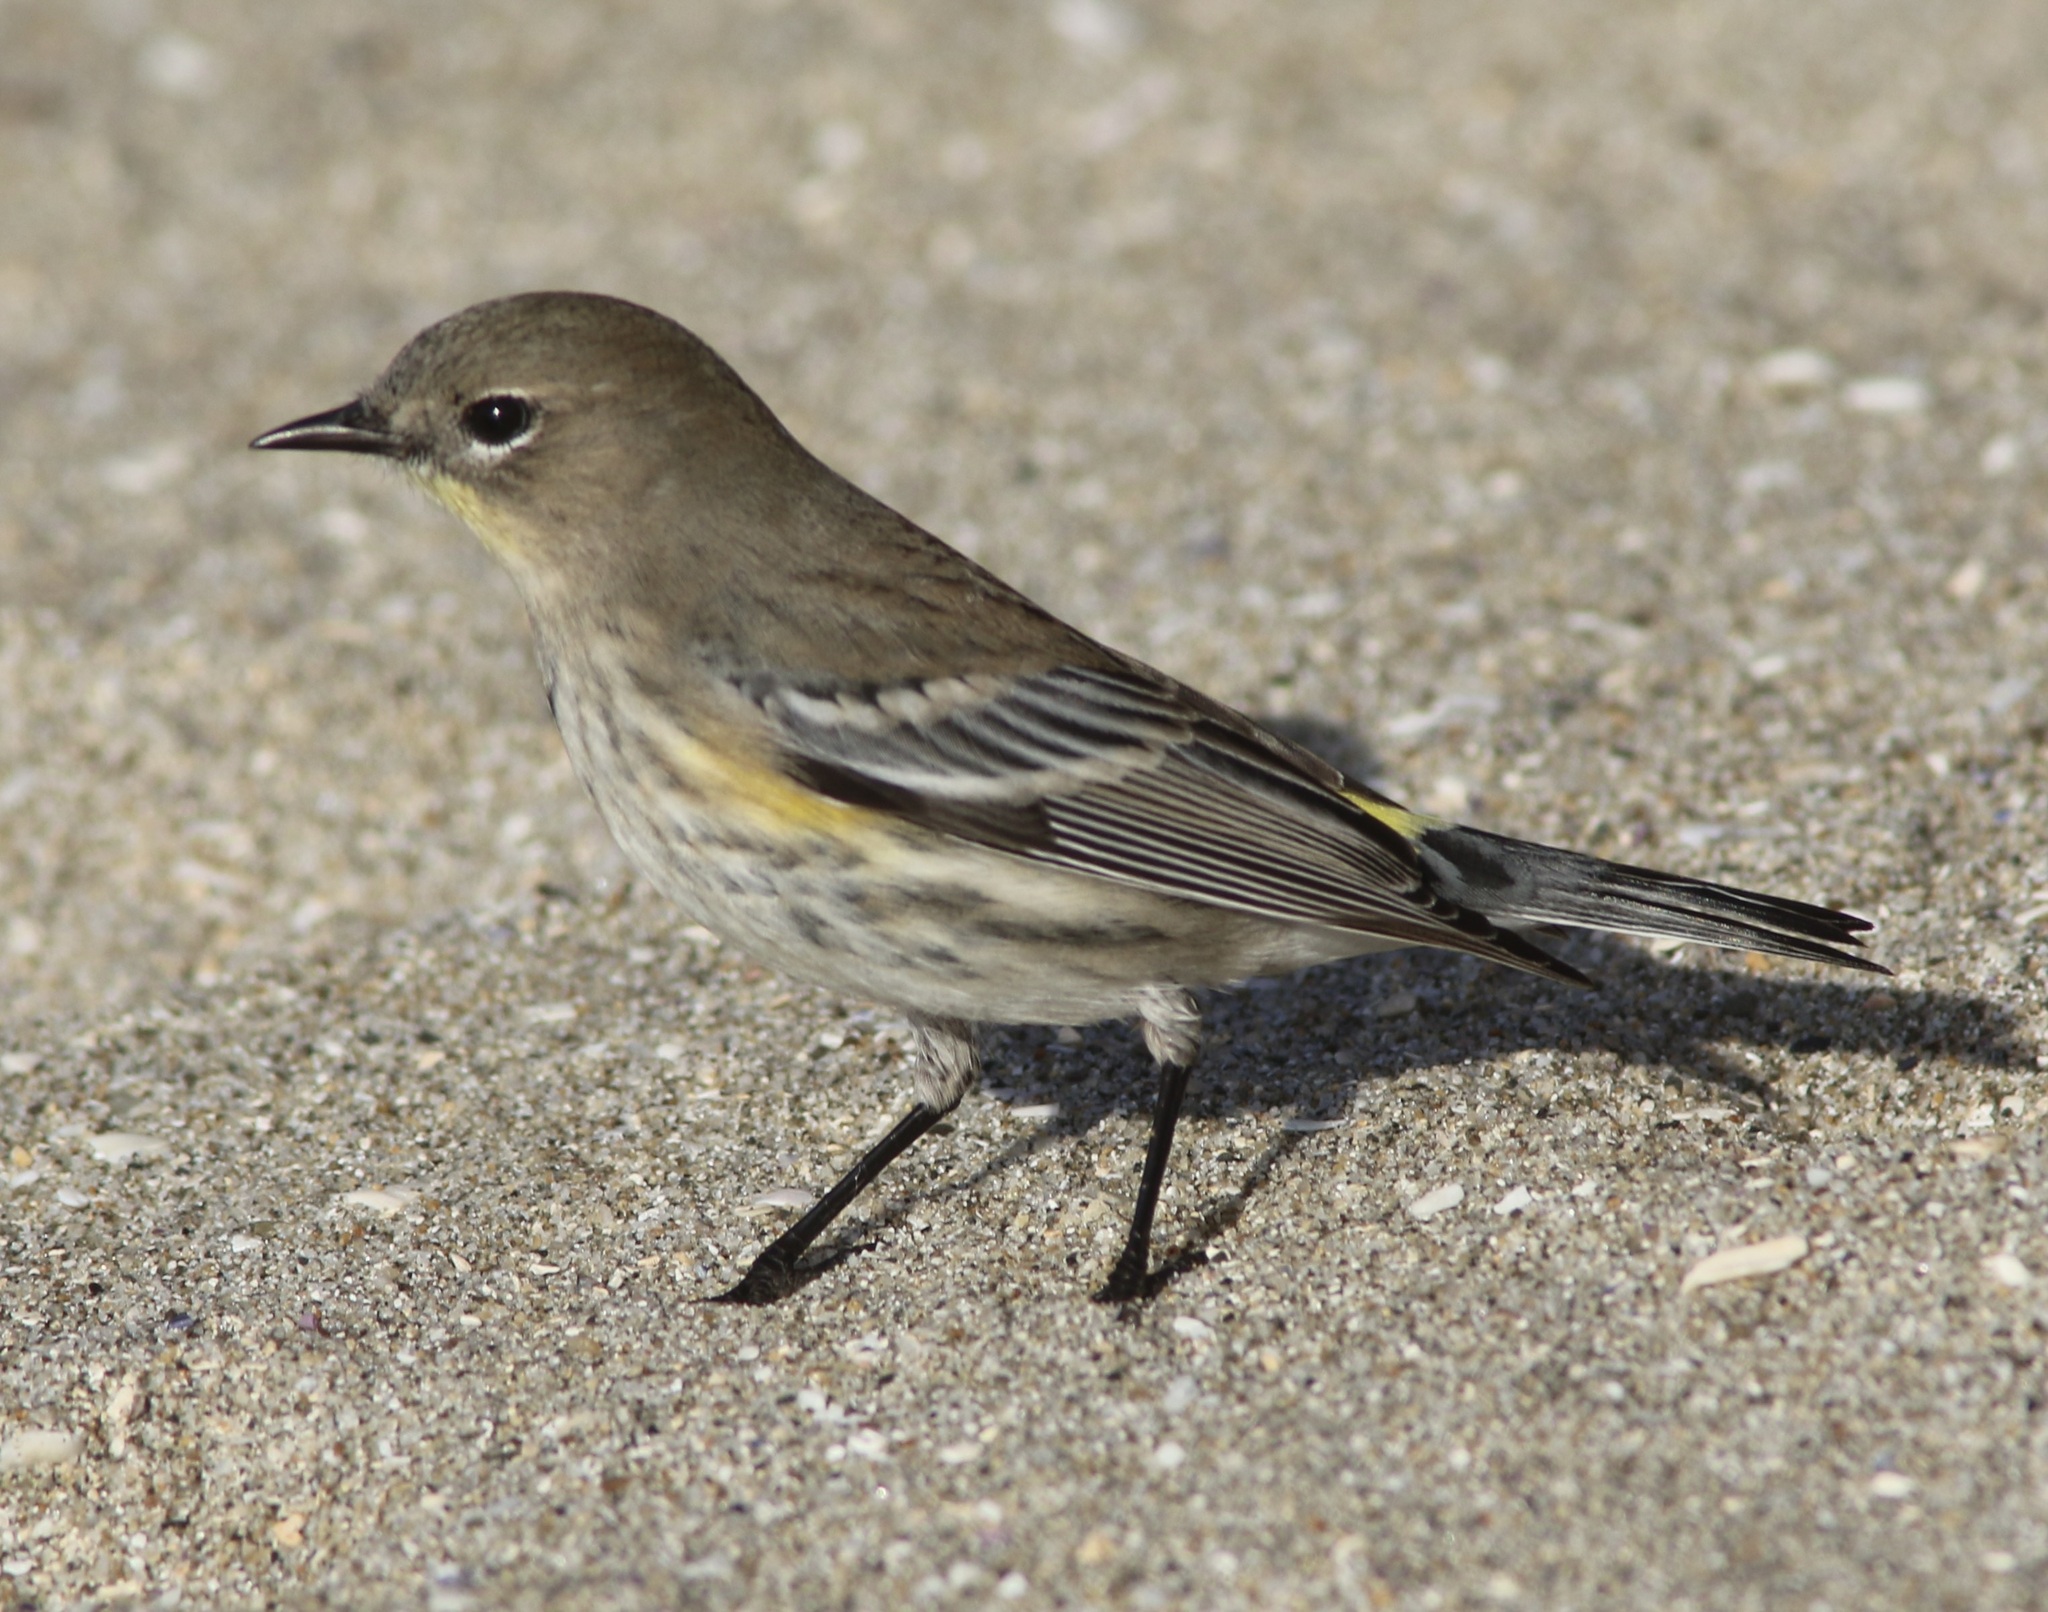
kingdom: Animalia
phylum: Chordata
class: Aves
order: Passeriformes
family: Parulidae
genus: Setophaga
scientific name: Setophaga coronata
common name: Myrtle warbler
